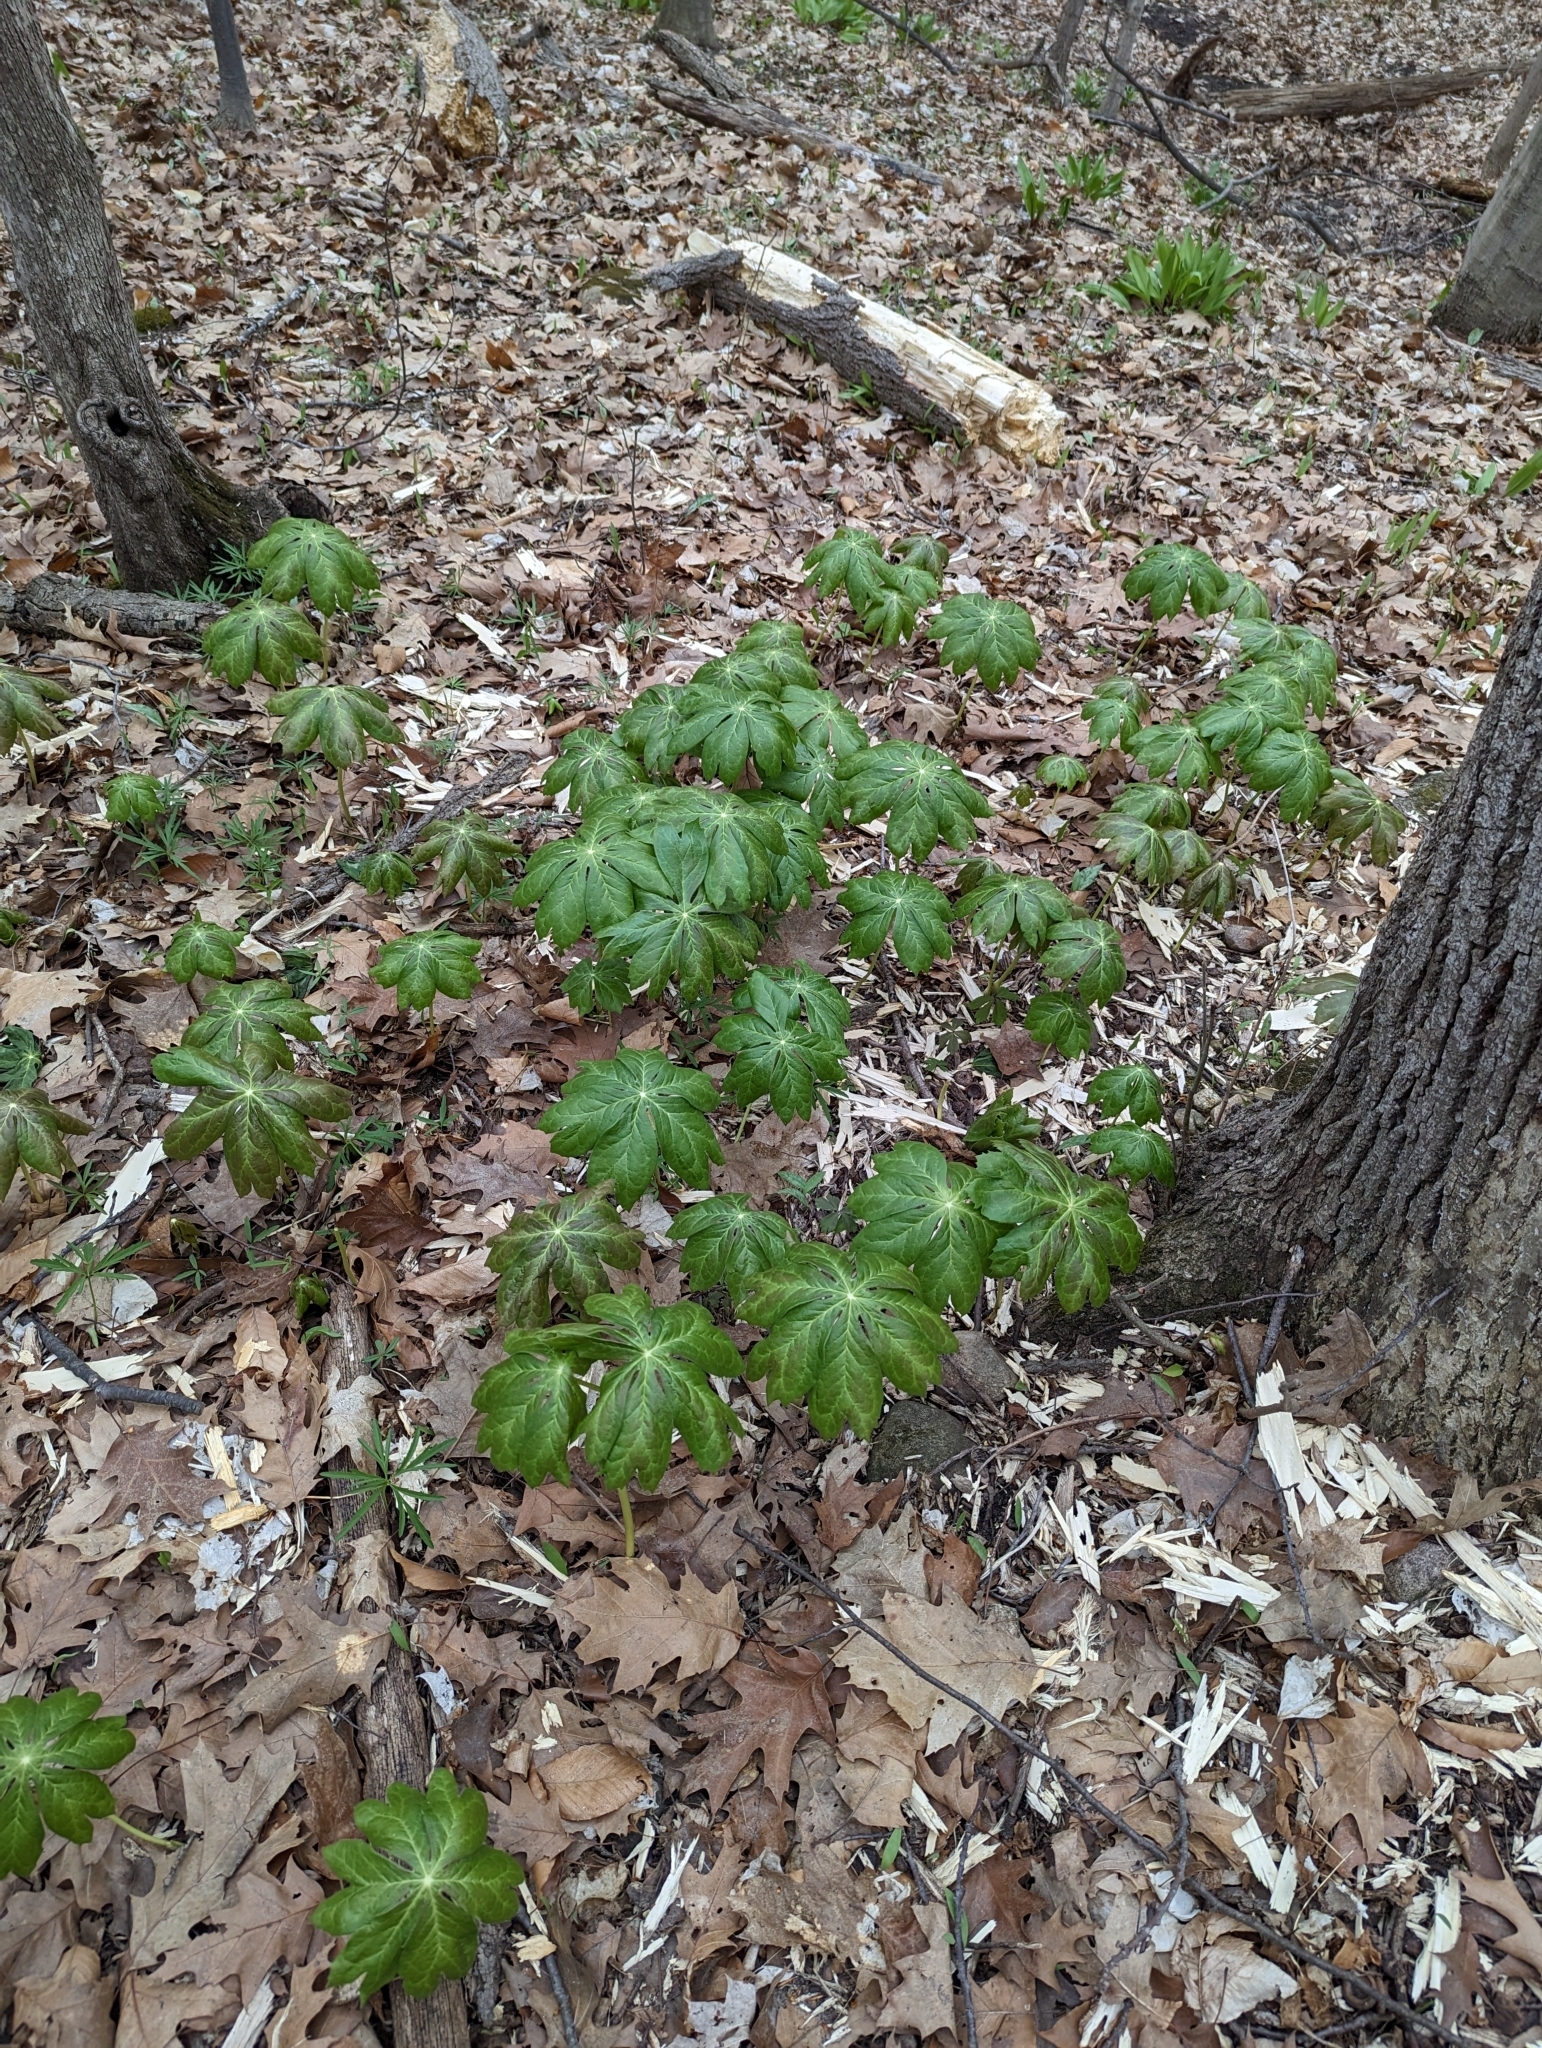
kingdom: Plantae
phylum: Tracheophyta
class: Magnoliopsida
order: Ranunculales
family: Berberidaceae
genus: Podophyllum
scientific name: Podophyllum peltatum
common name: Wild mandrake
